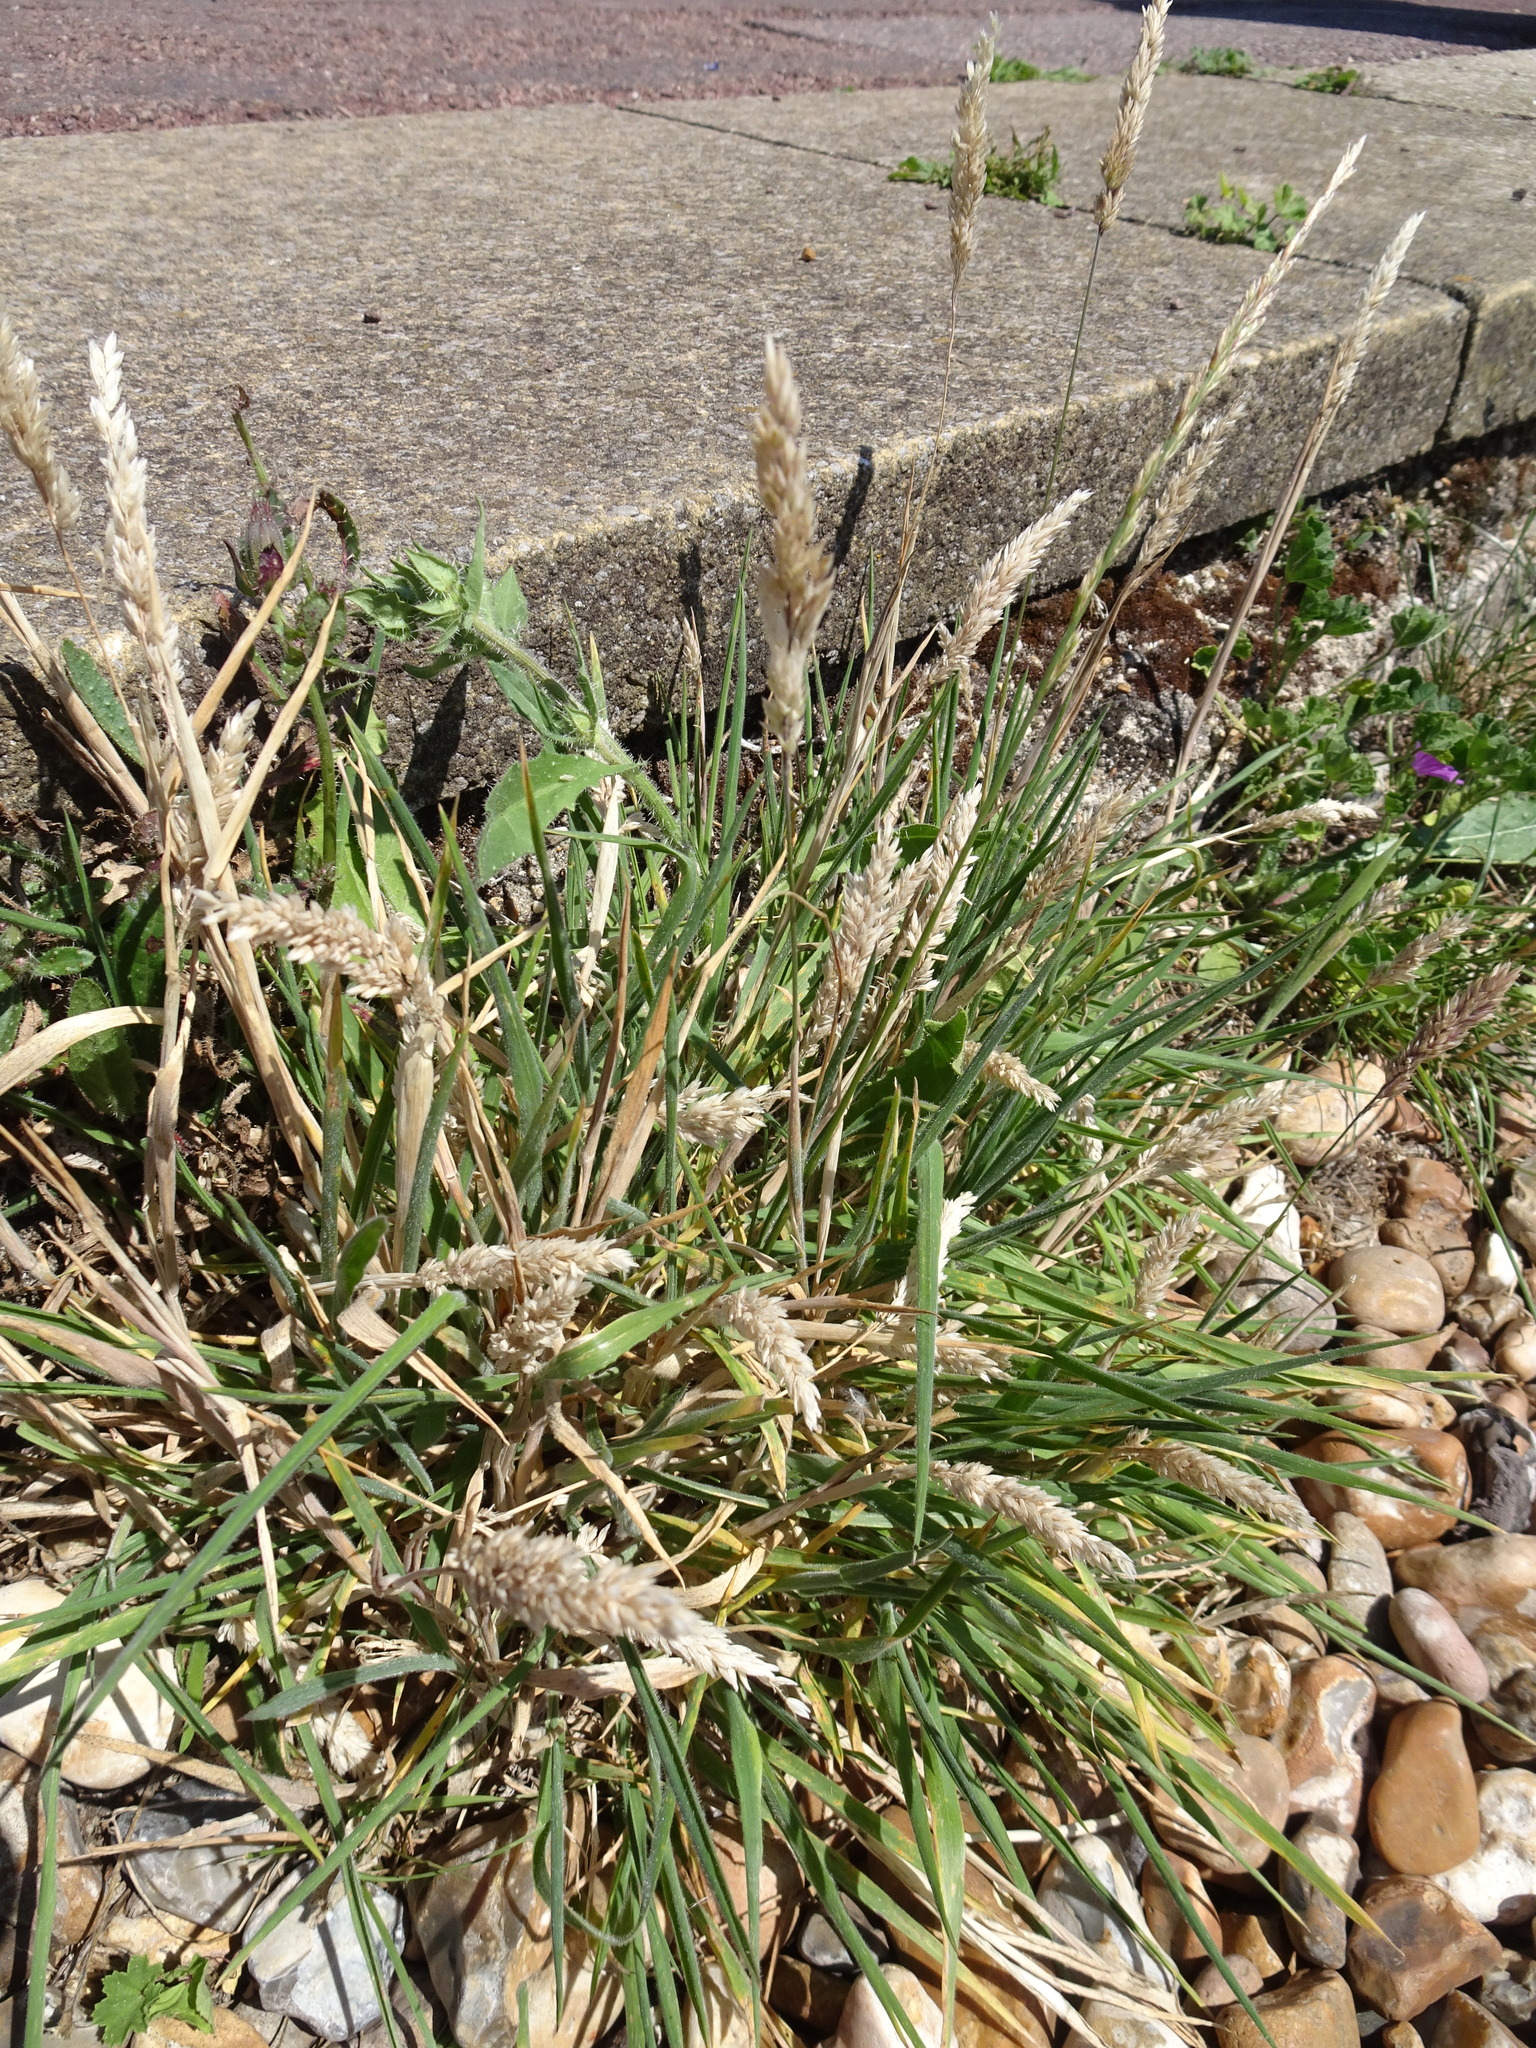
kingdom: Plantae
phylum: Tracheophyta
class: Liliopsida
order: Poales
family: Poaceae
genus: Holcus
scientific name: Holcus lanatus
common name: Yorkshire-fog
